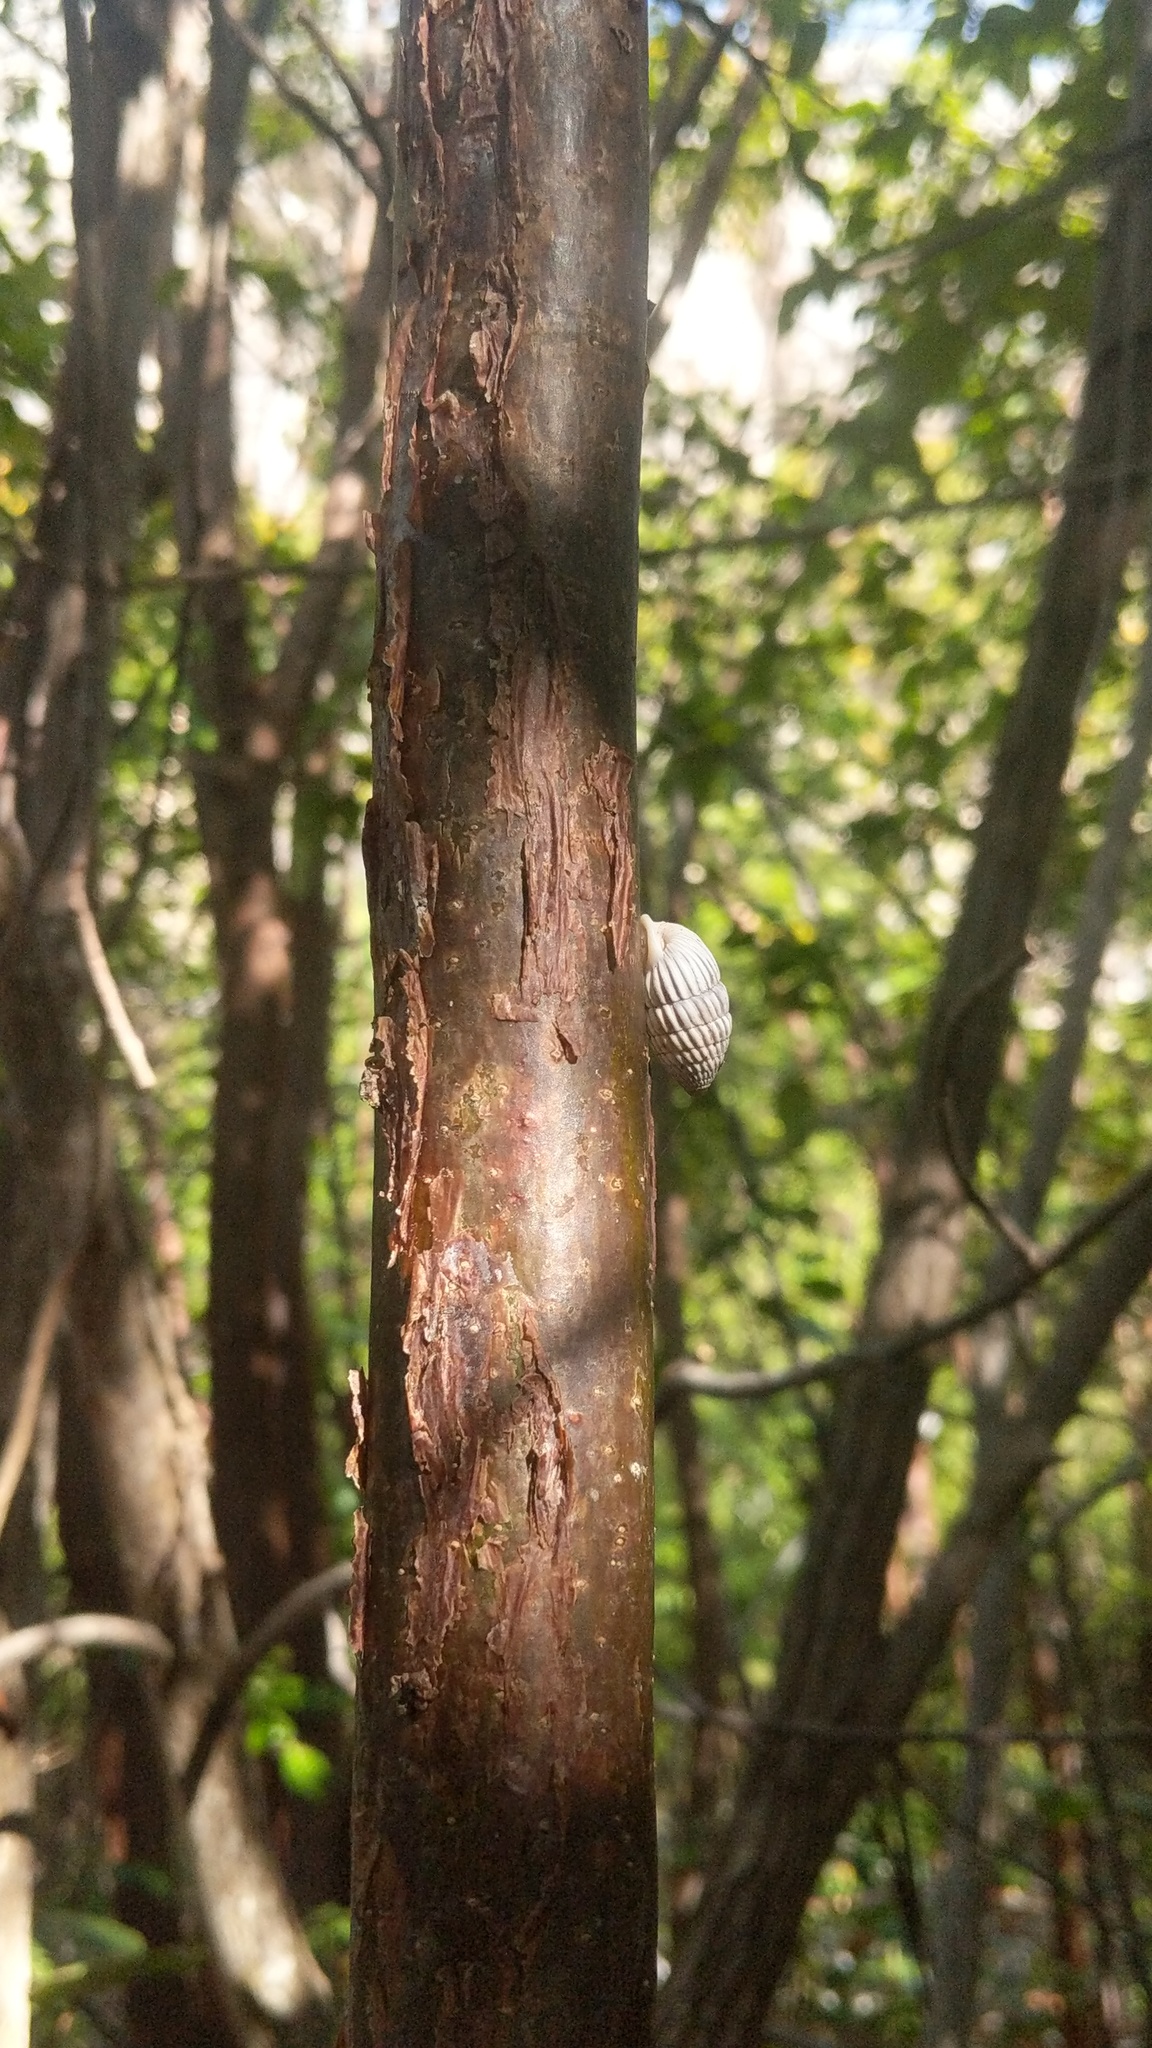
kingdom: Plantae
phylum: Tracheophyta
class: Magnoliopsida
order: Sapindales
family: Burseraceae
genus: Bursera
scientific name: Bursera simaruba
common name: Turpentine tree
